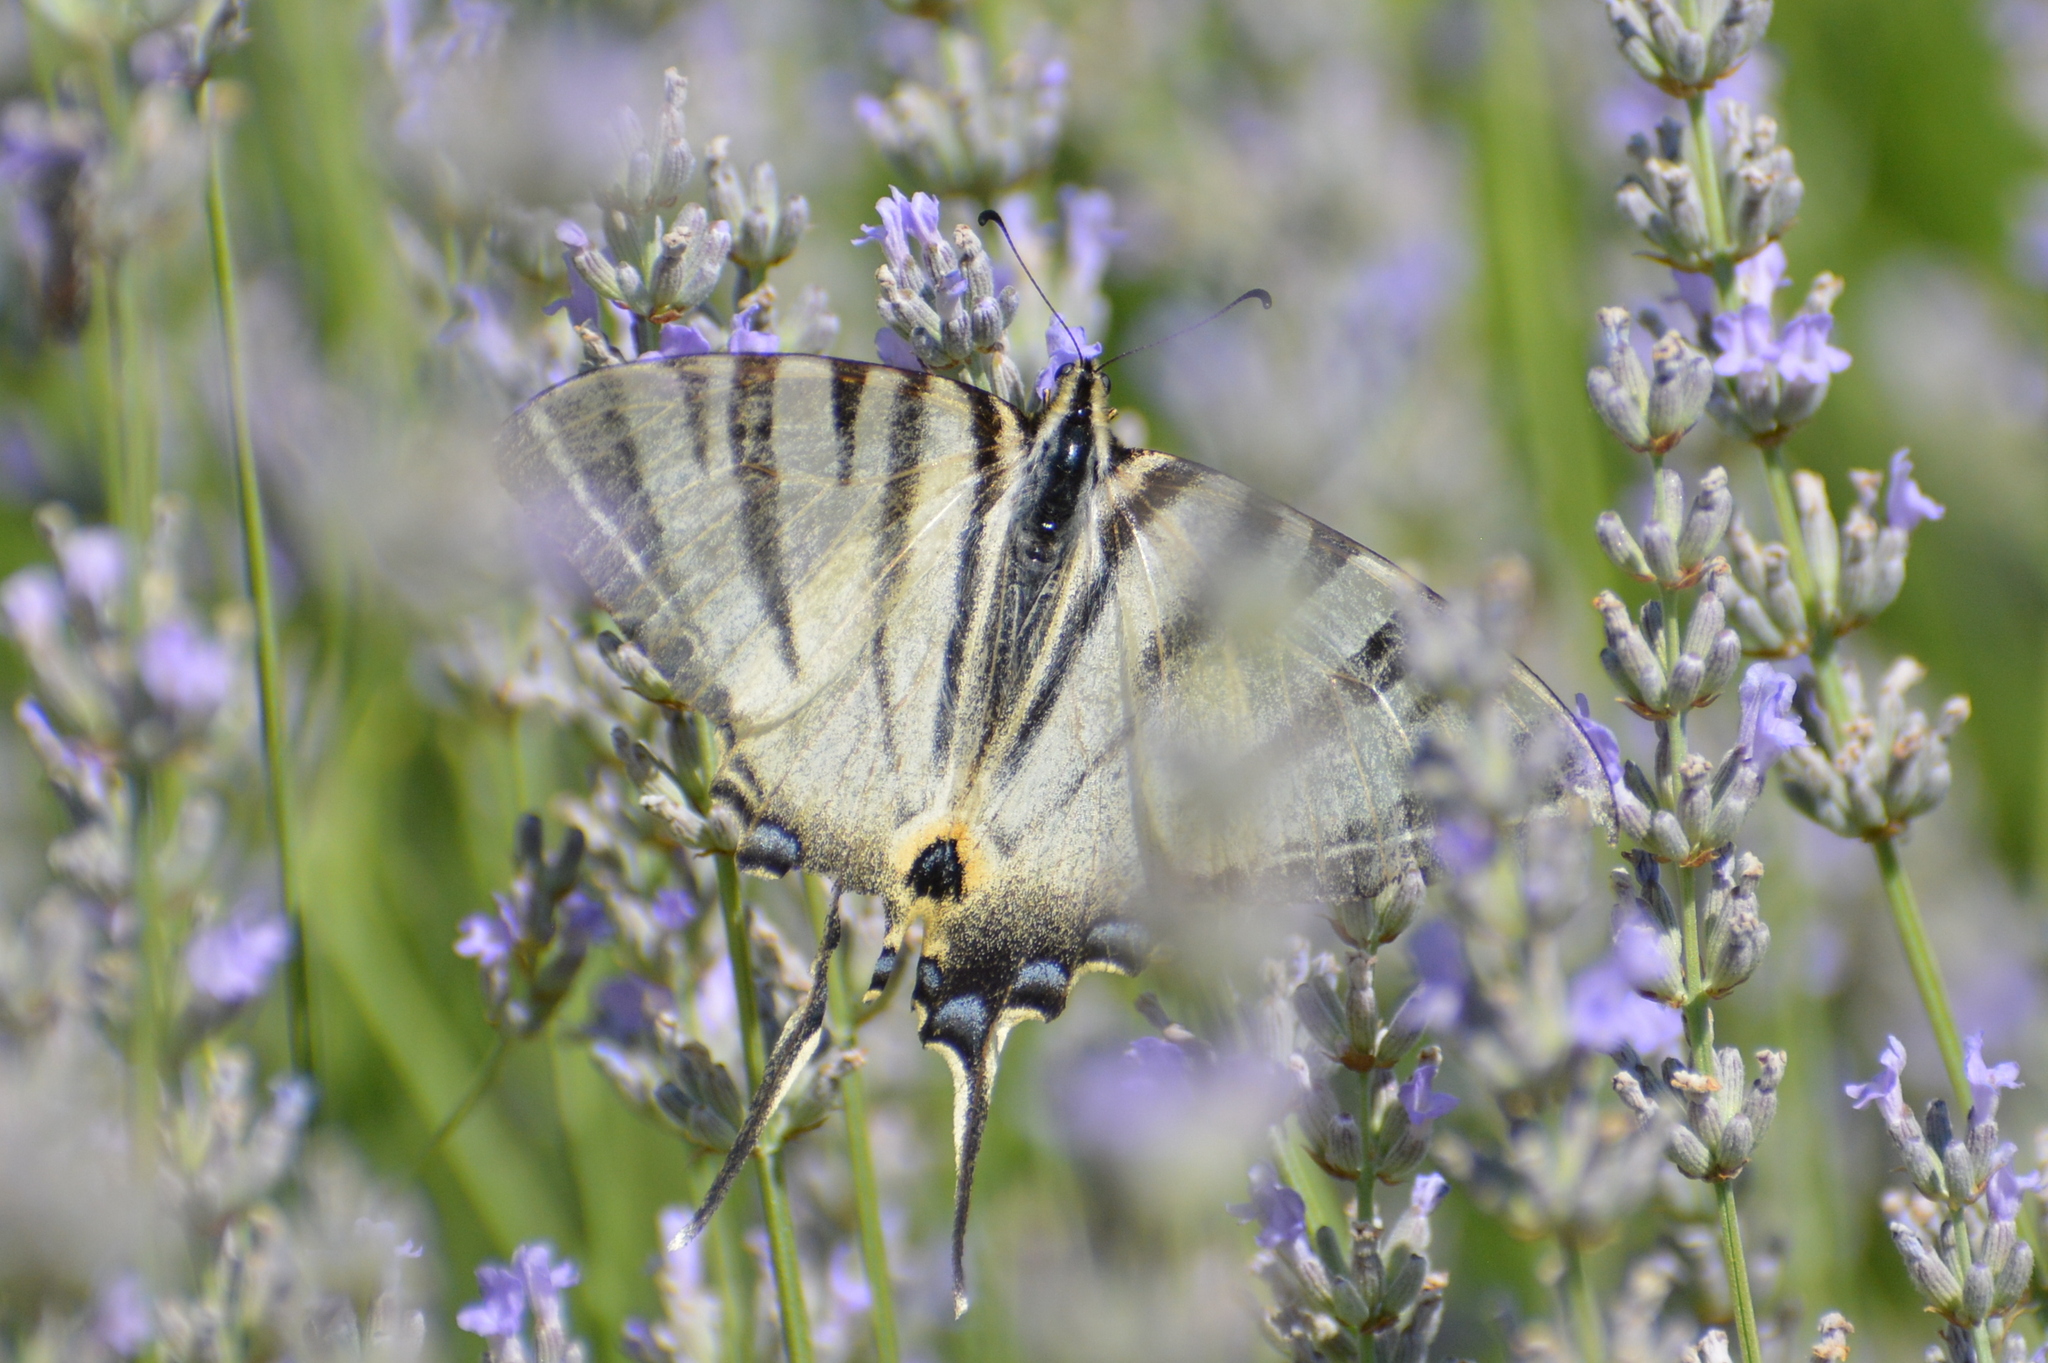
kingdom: Animalia
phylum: Arthropoda
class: Insecta
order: Lepidoptera
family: Papilionidae
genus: Iphiclides
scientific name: Iphiclides podalirius
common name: Scarce swallowtail
